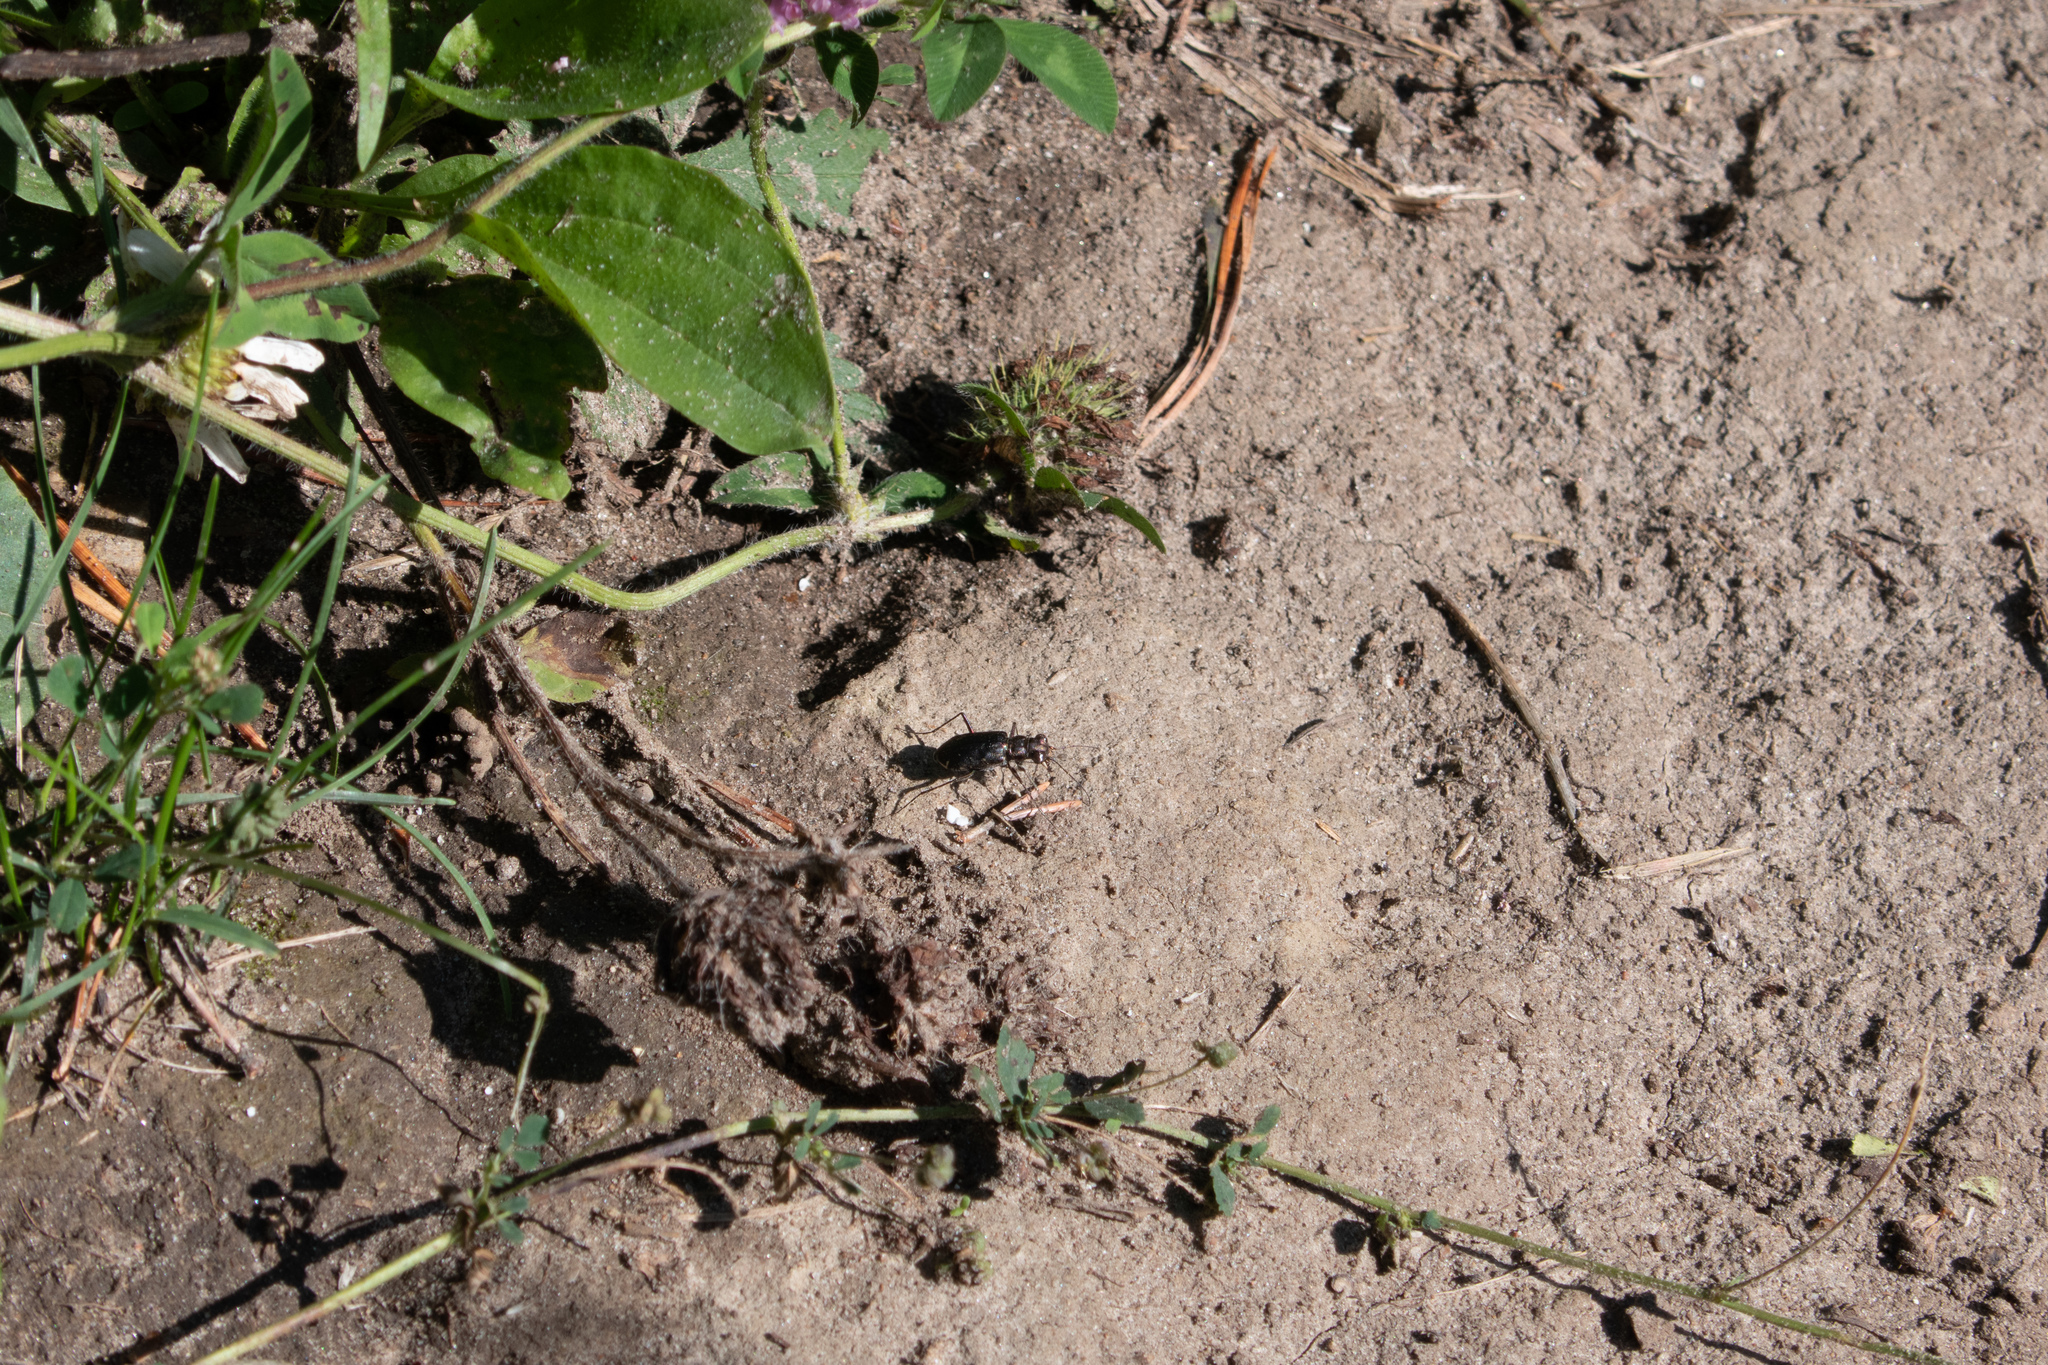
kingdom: Animalia
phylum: Arthropoda
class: Insecta
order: Coleoptera
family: Carabidae
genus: Cicindela
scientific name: Cicindela punctulata
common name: Punctured tiger beetle
